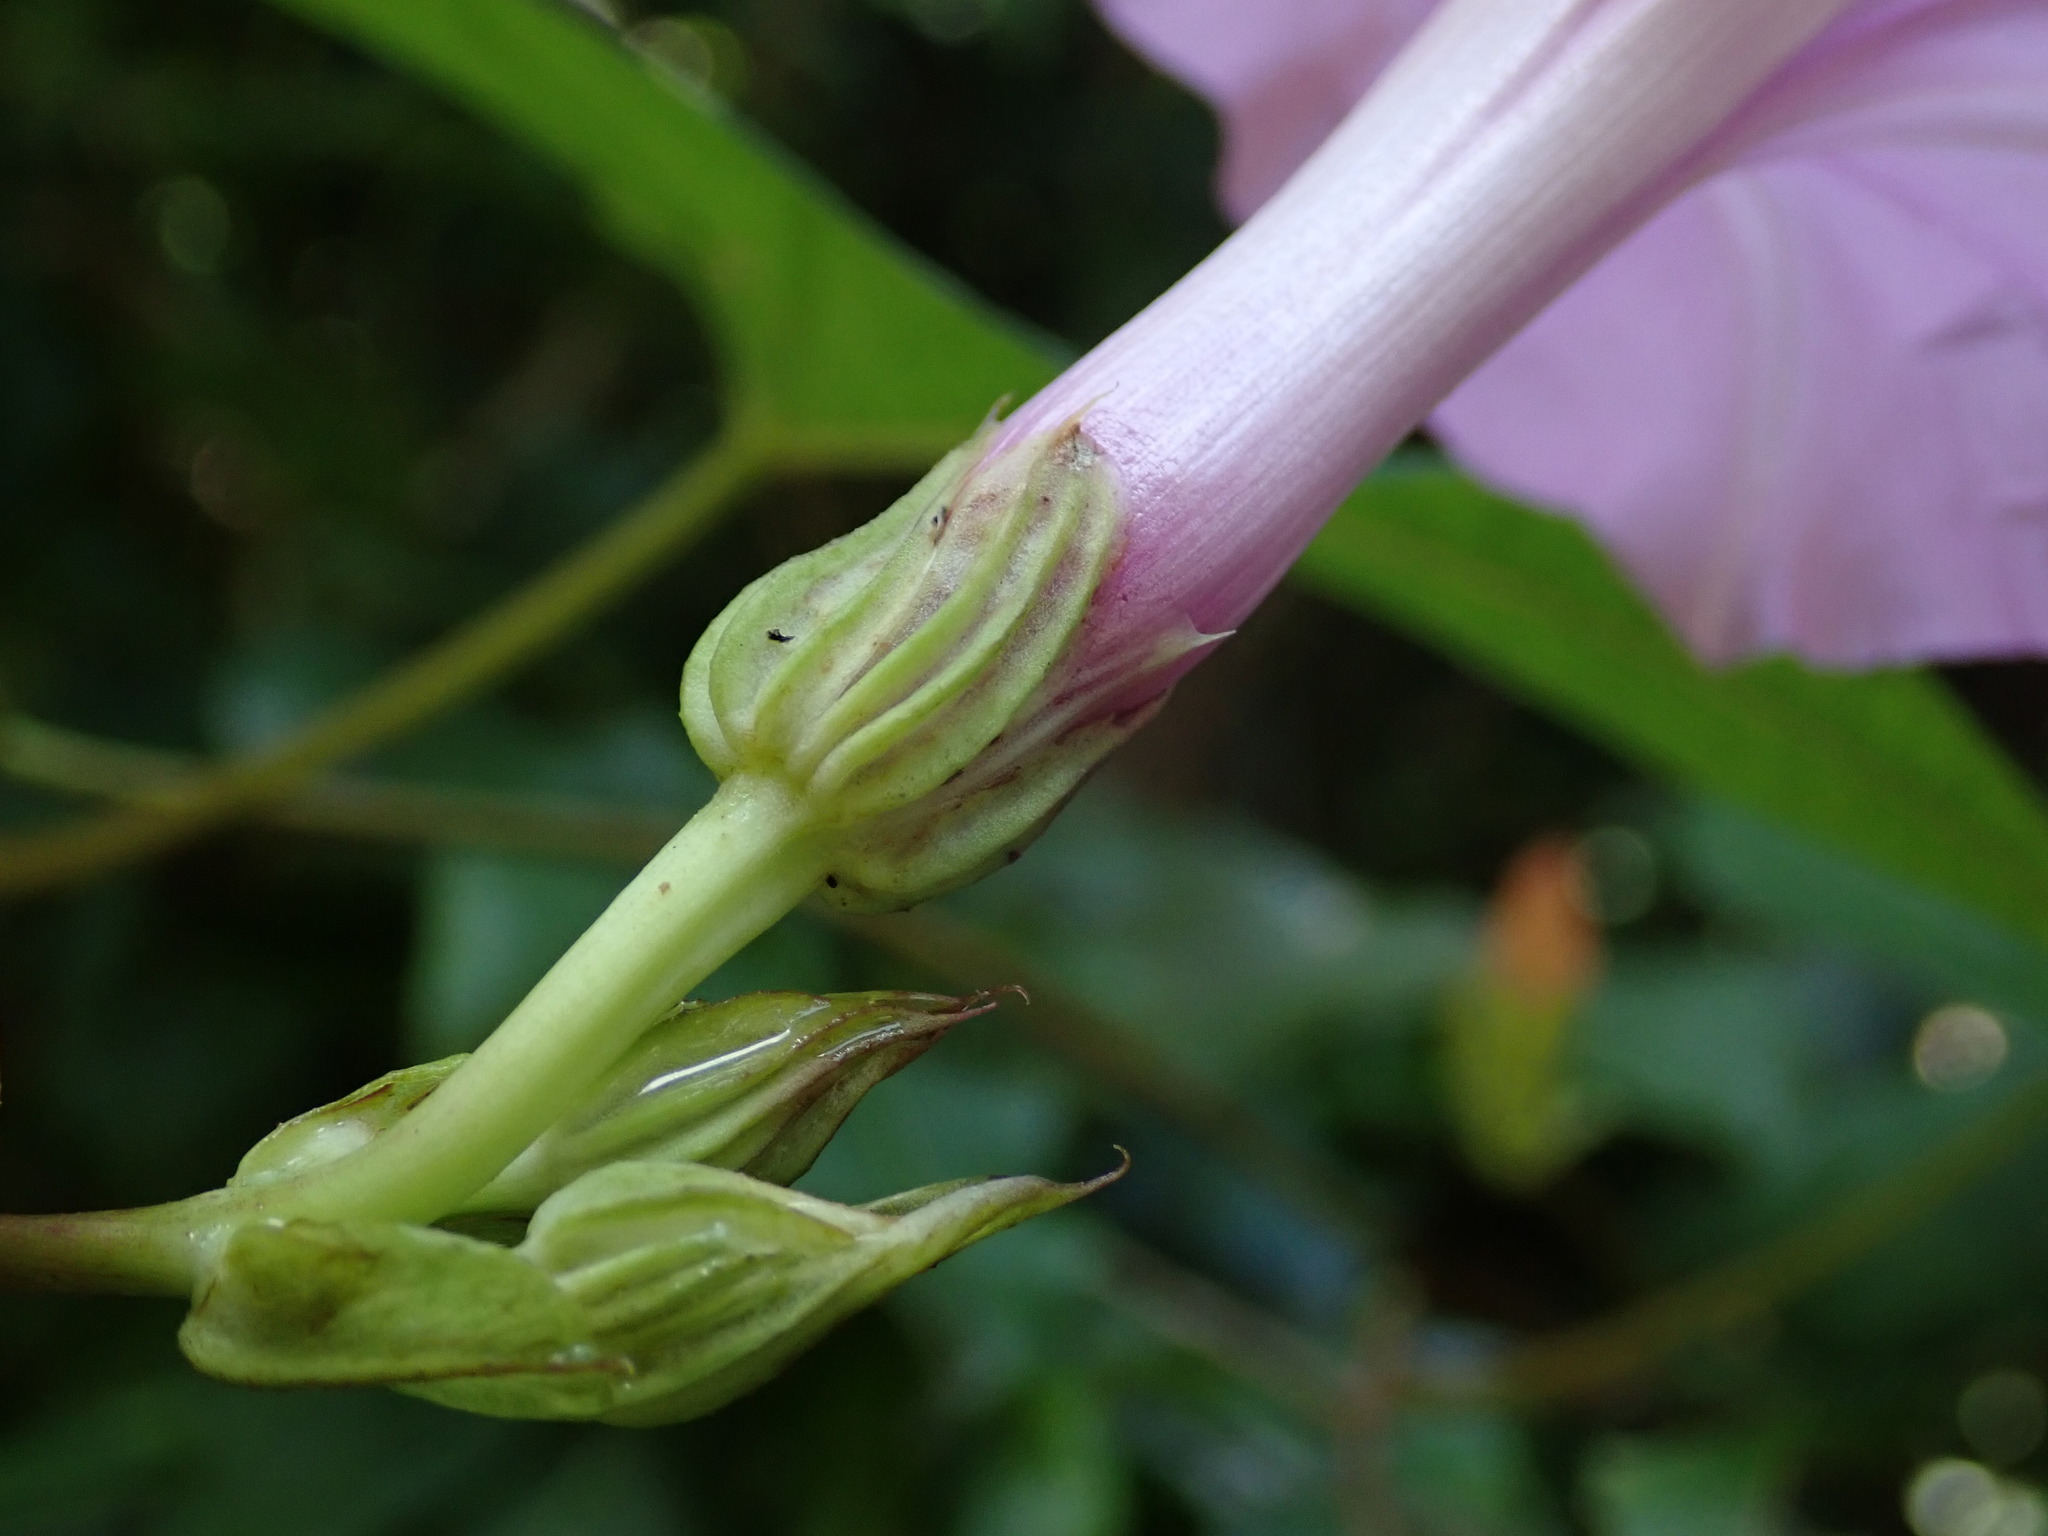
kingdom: Plantae
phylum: Tracheophyta
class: Magnoliopsida
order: Solanales
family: Convolvulaceae
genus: Ipomoea
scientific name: Ipomoea setifera
